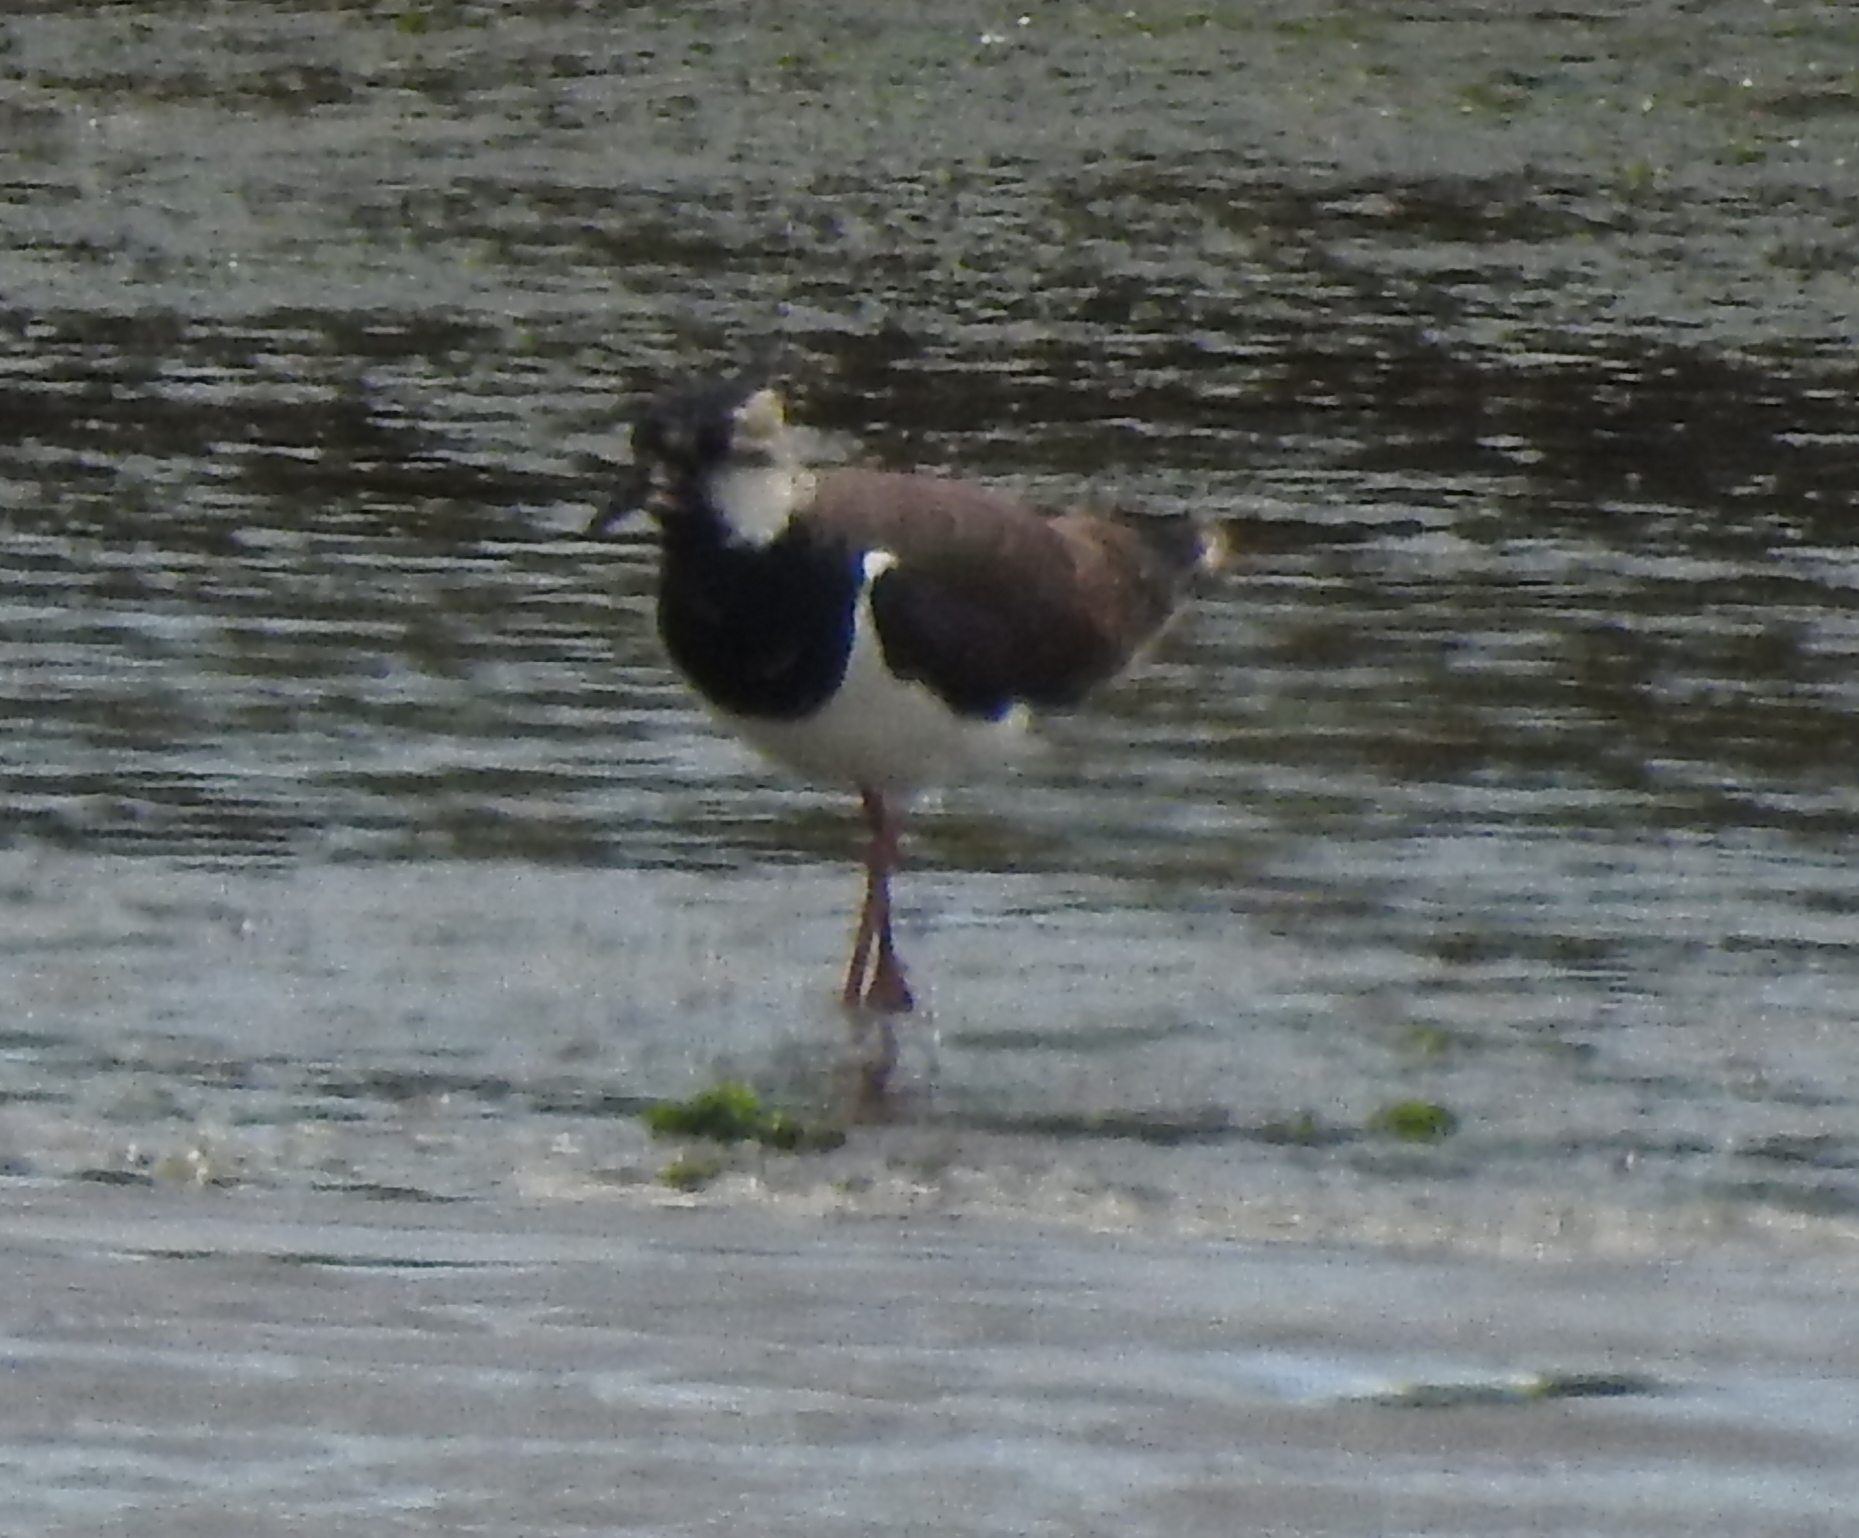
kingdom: Animalia
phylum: Chordata
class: Aves
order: Charadriiformes
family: Charadriidae
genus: Vanellus
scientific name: Vanellus vanellus
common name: Northern lapwing
